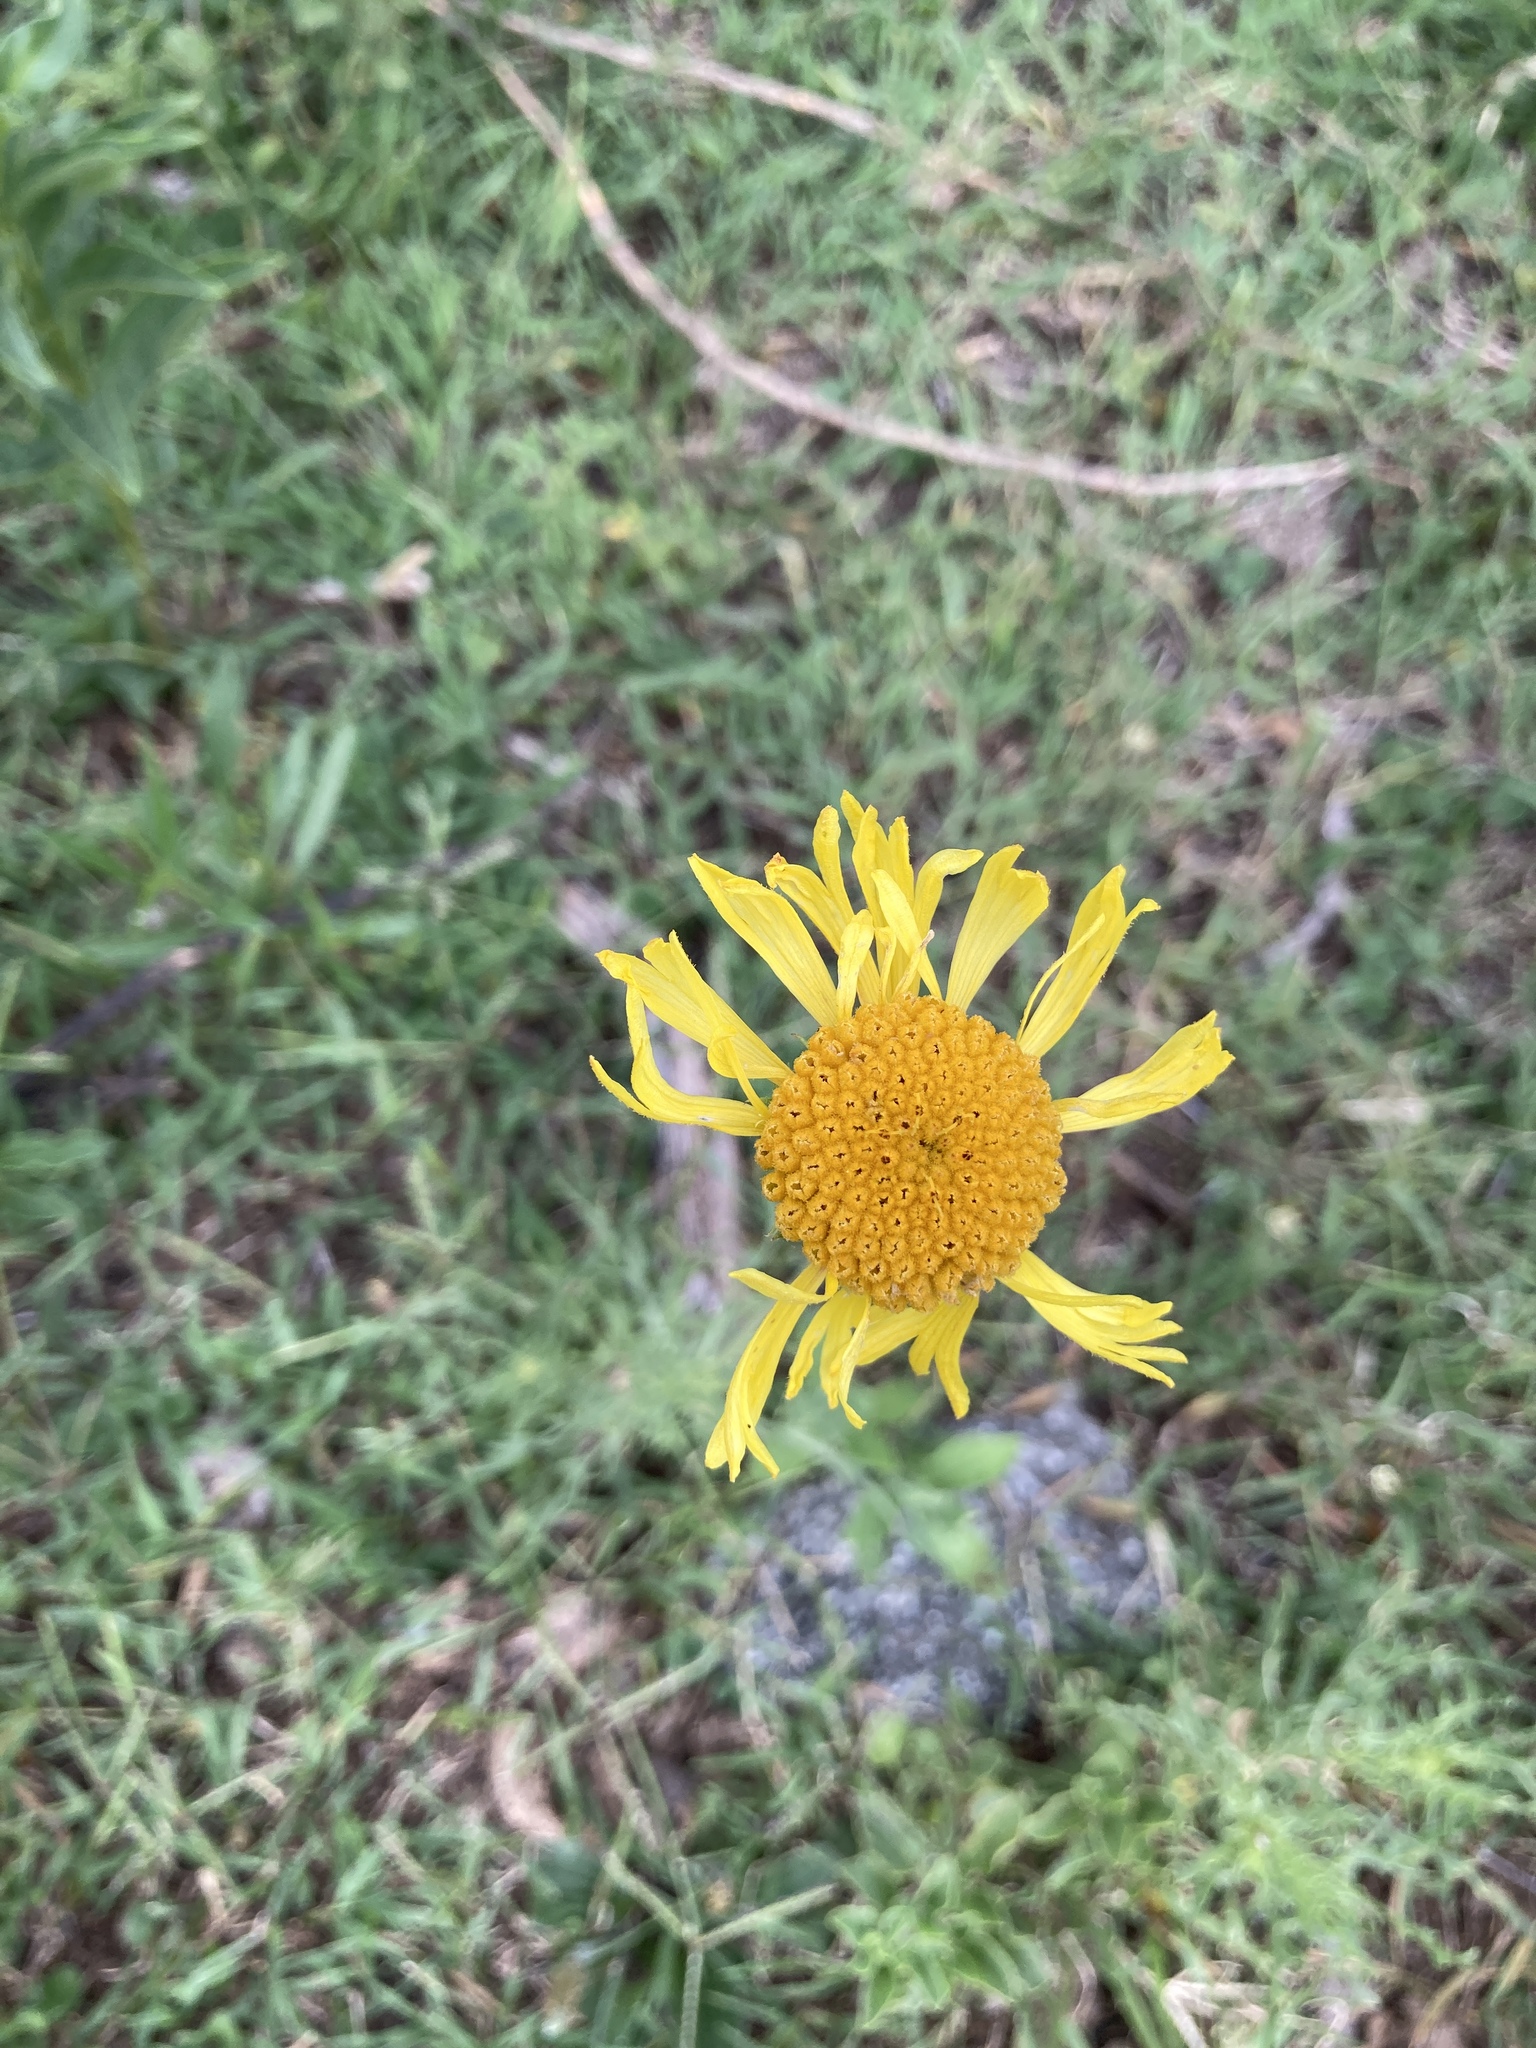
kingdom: Plantae
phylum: Tracheophyta
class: Magnoliopsida
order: Asterales
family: Asteraceae
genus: Gaillardia
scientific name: Gaillardia megapotamica
